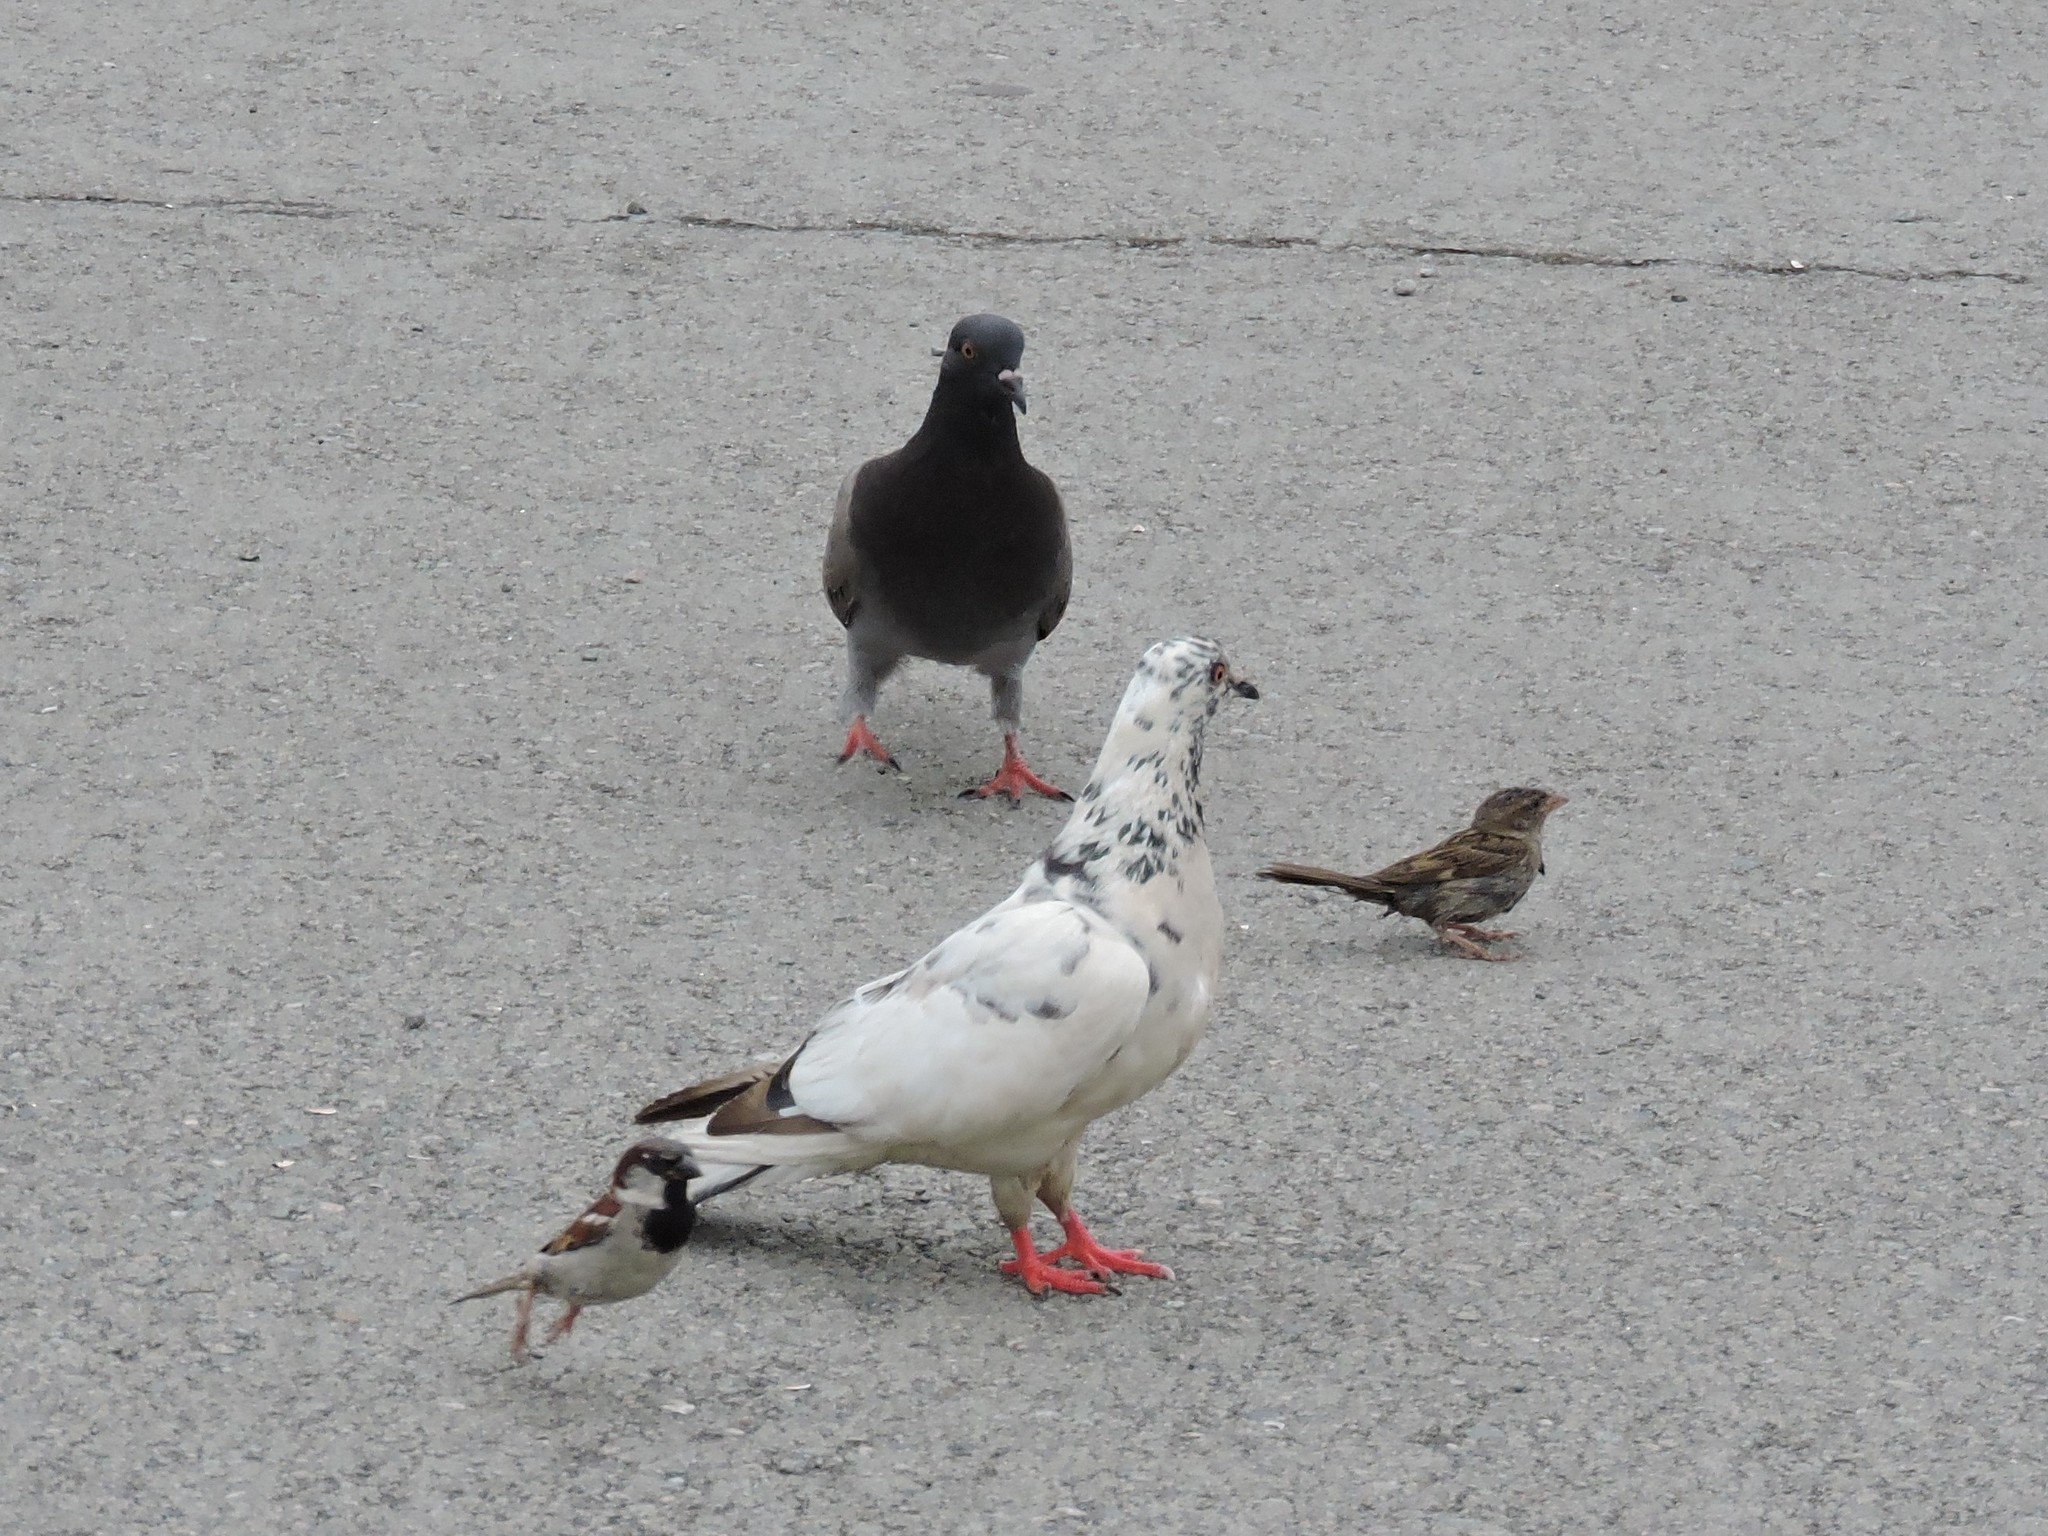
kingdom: Animalia
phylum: Chordata
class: Aves
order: Passeriformes
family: Passeridae
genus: Passer
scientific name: Passer domesticus
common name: House sparrow
